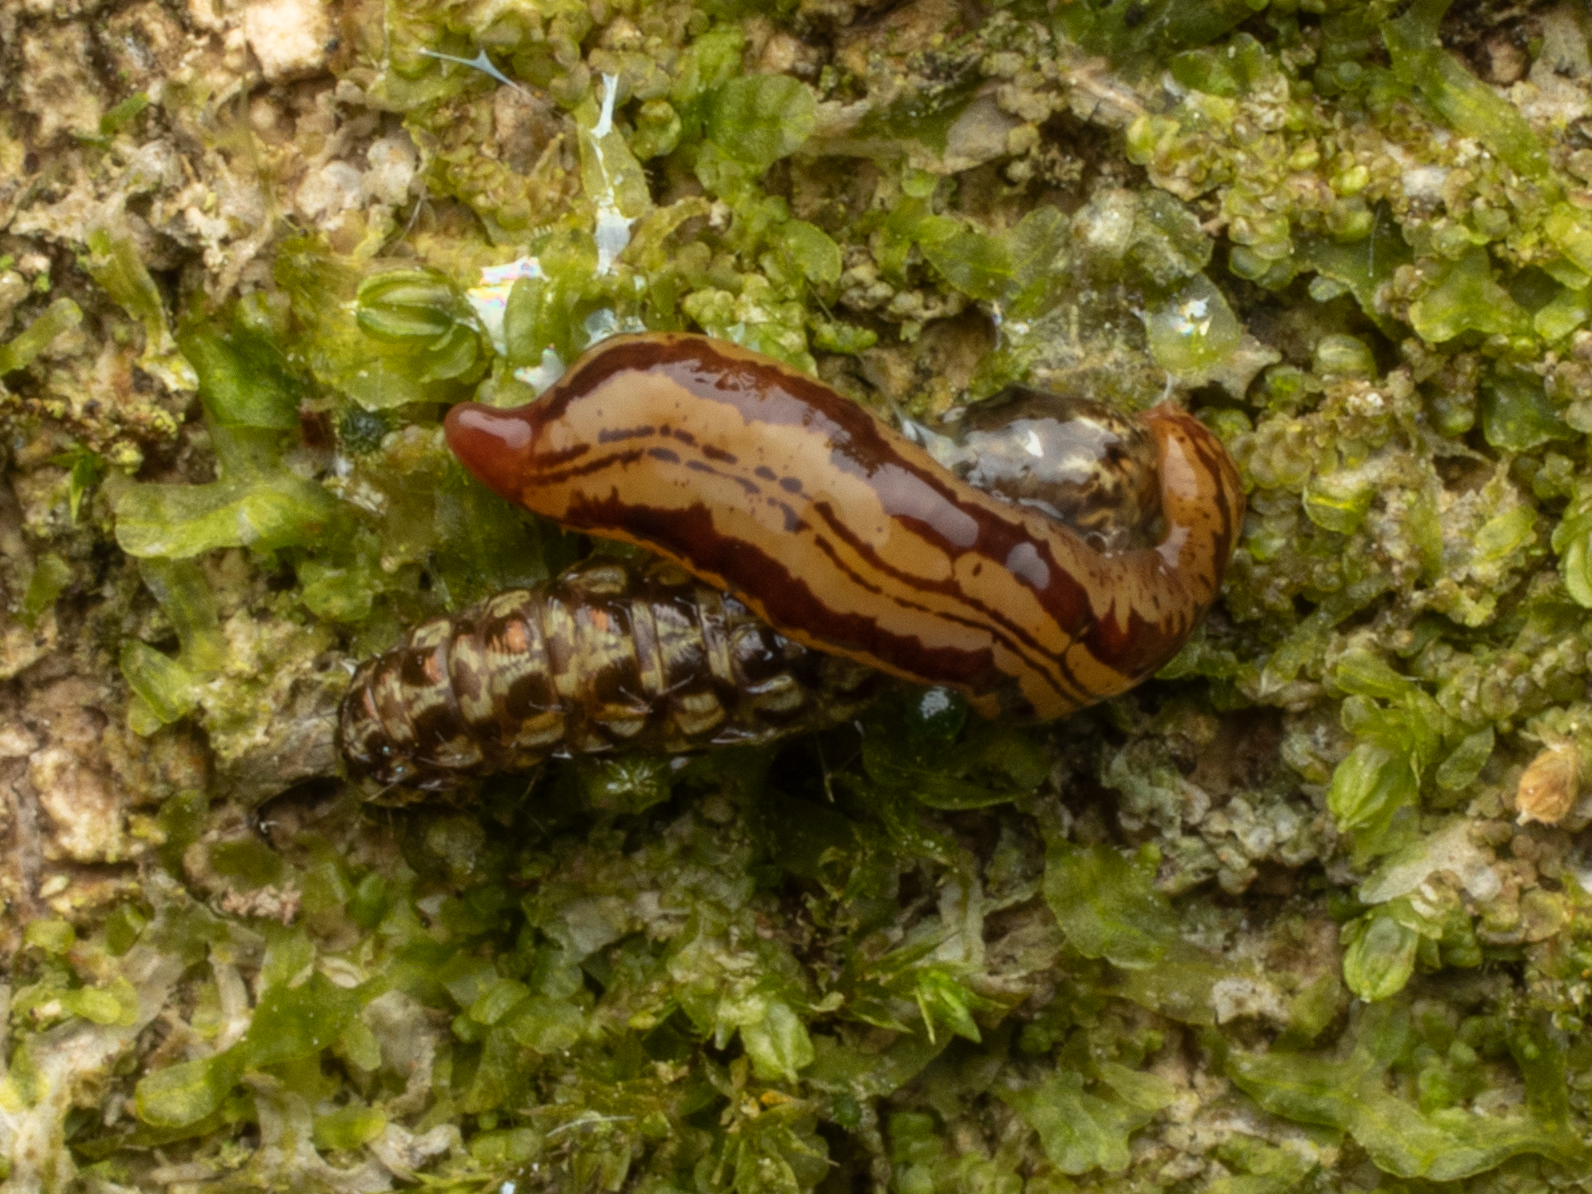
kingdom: Animalia
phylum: Platyhelminthes
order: Tricladida
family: Geoplanidae
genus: Artioposthia
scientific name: Artioposthia polyadoides
